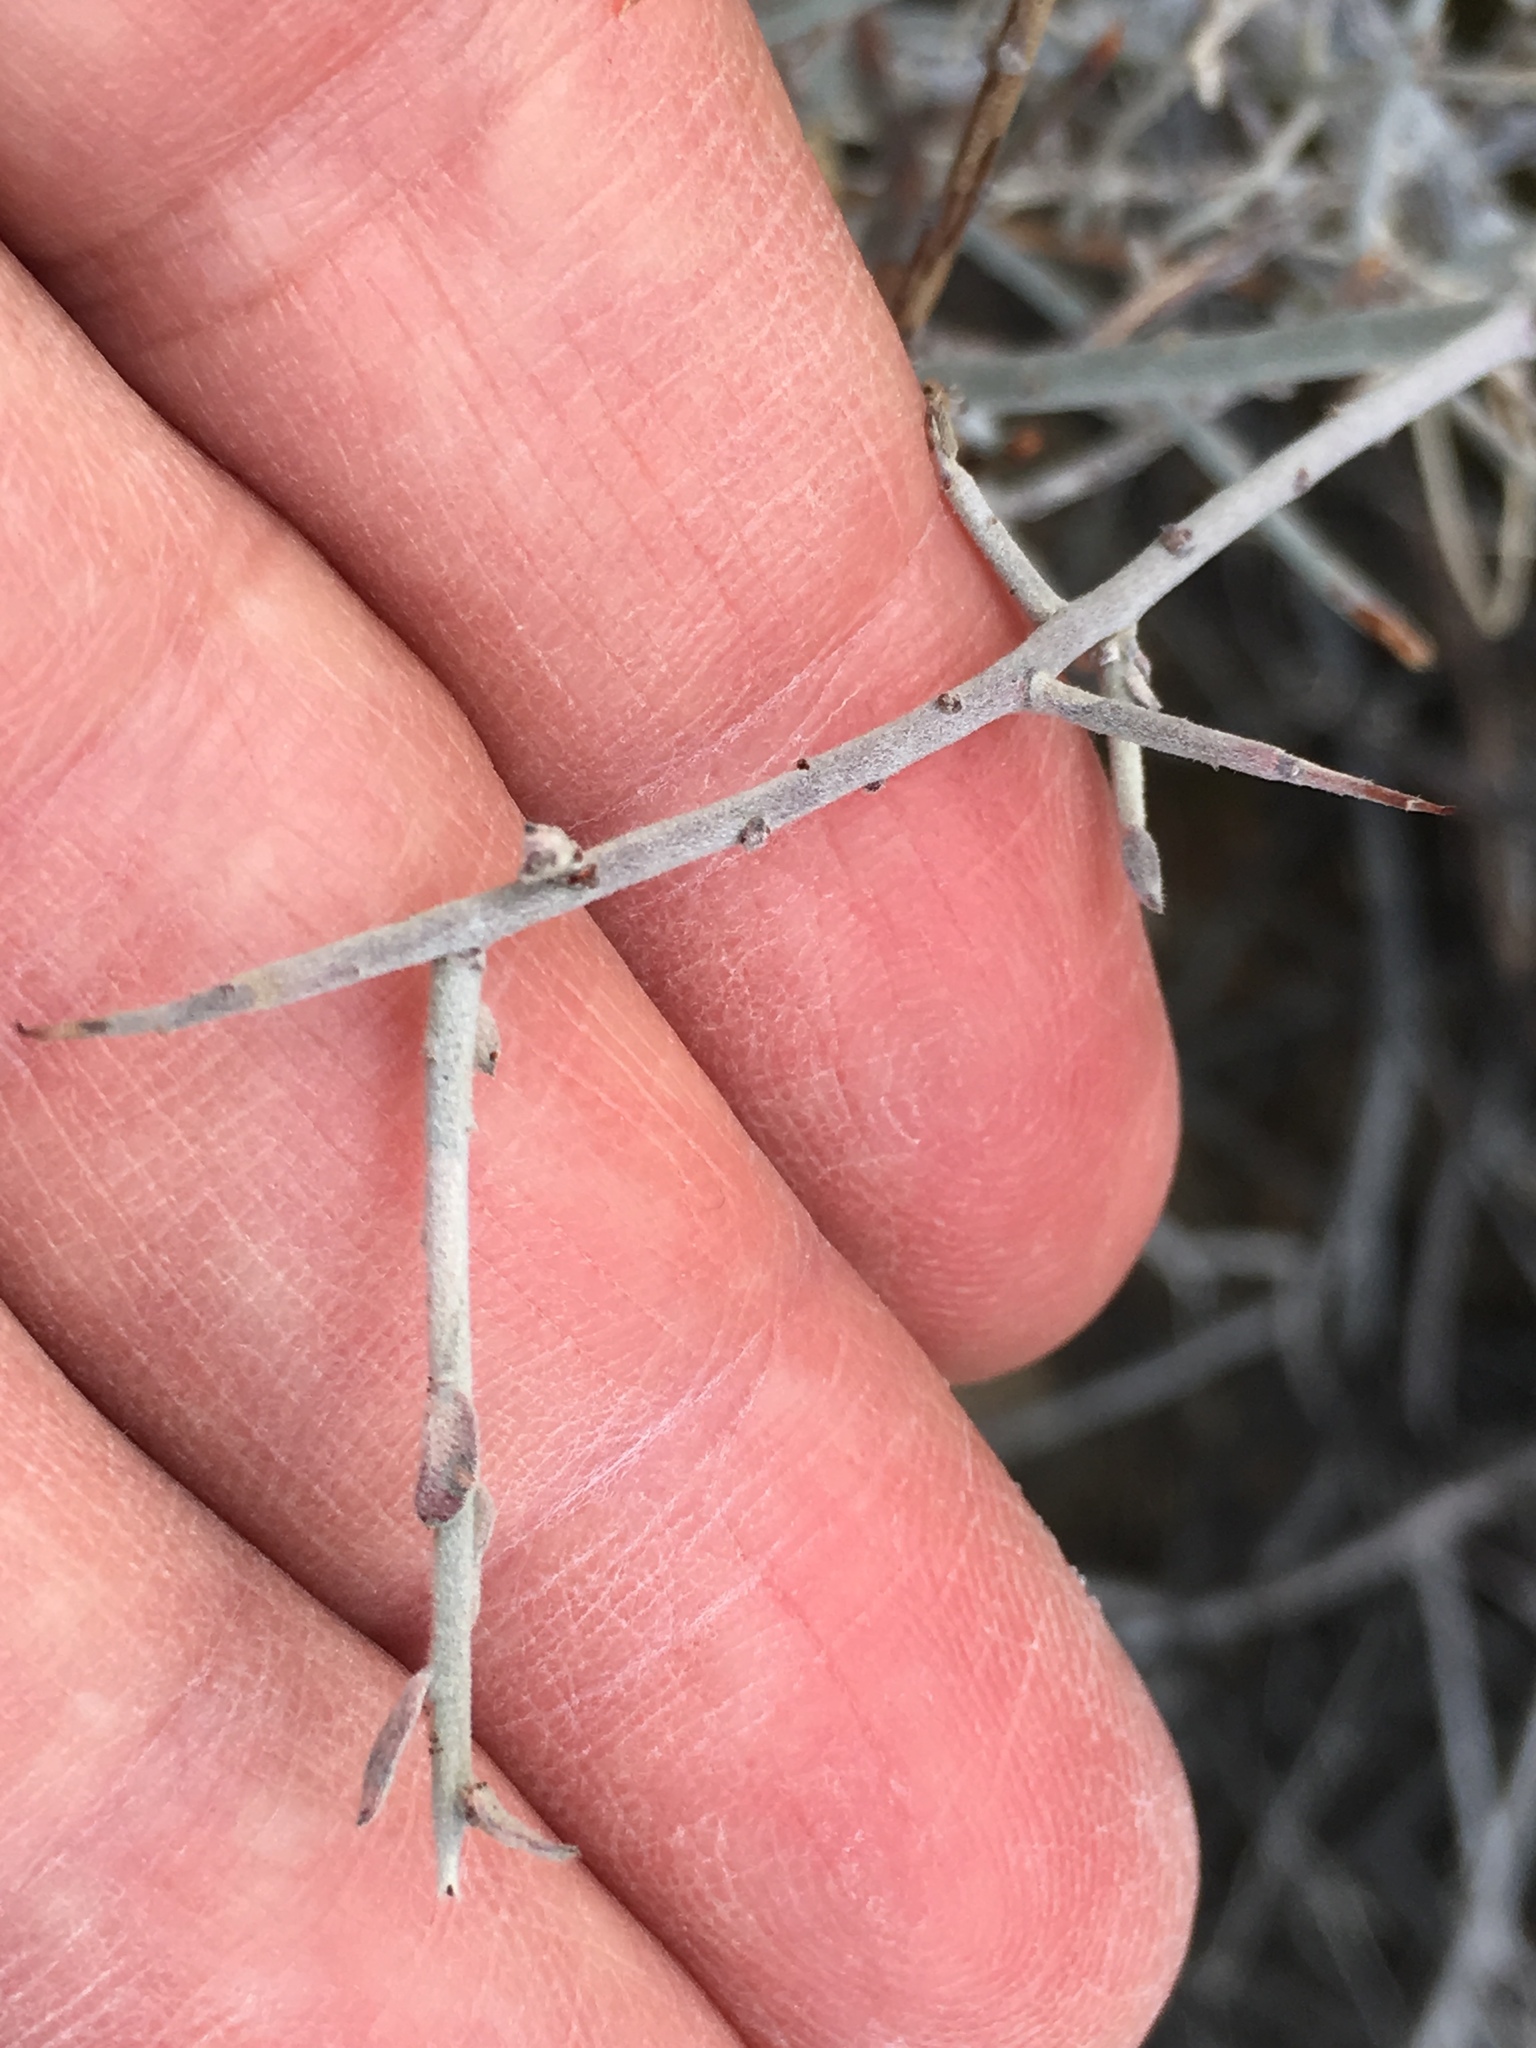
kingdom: Plantae
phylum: Tracheophyta
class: Magnoliopsida
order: Zygophyllales
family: Krameriaceae
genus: Krameria
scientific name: Krameria bicolor
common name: White ratany
